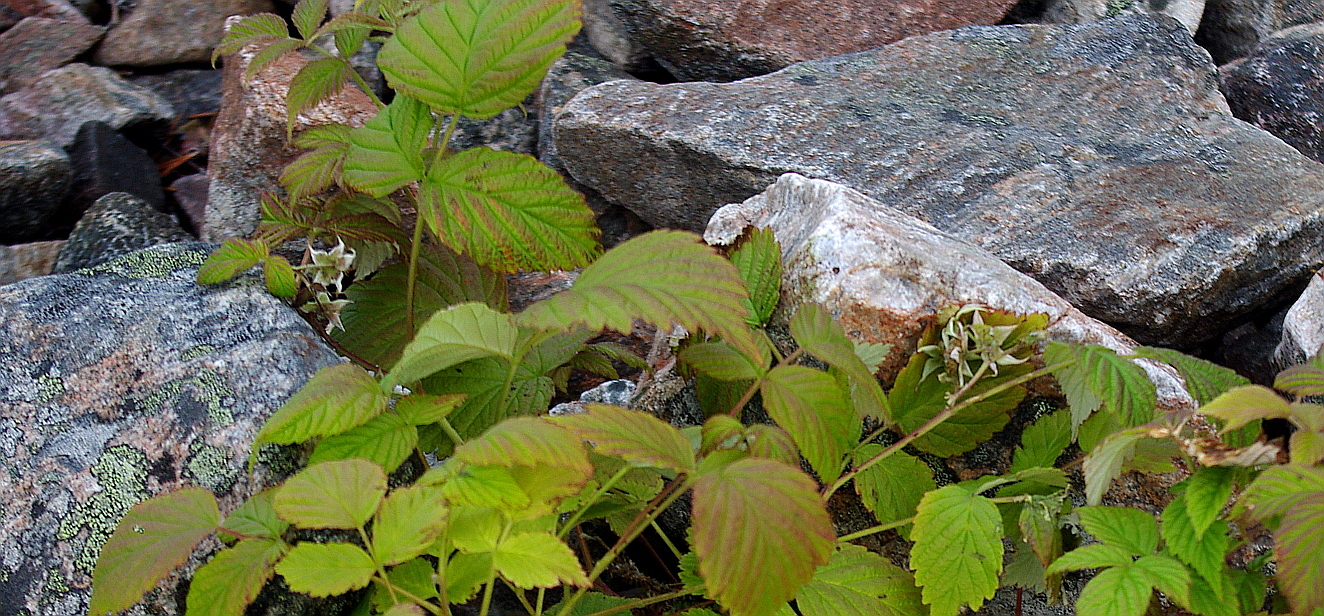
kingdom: Plantae
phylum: Tracheophyta
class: Magnoliopsida
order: Rosales
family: Rosaceae
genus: Rubus
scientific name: Rubus idaeus
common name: Raspberry
